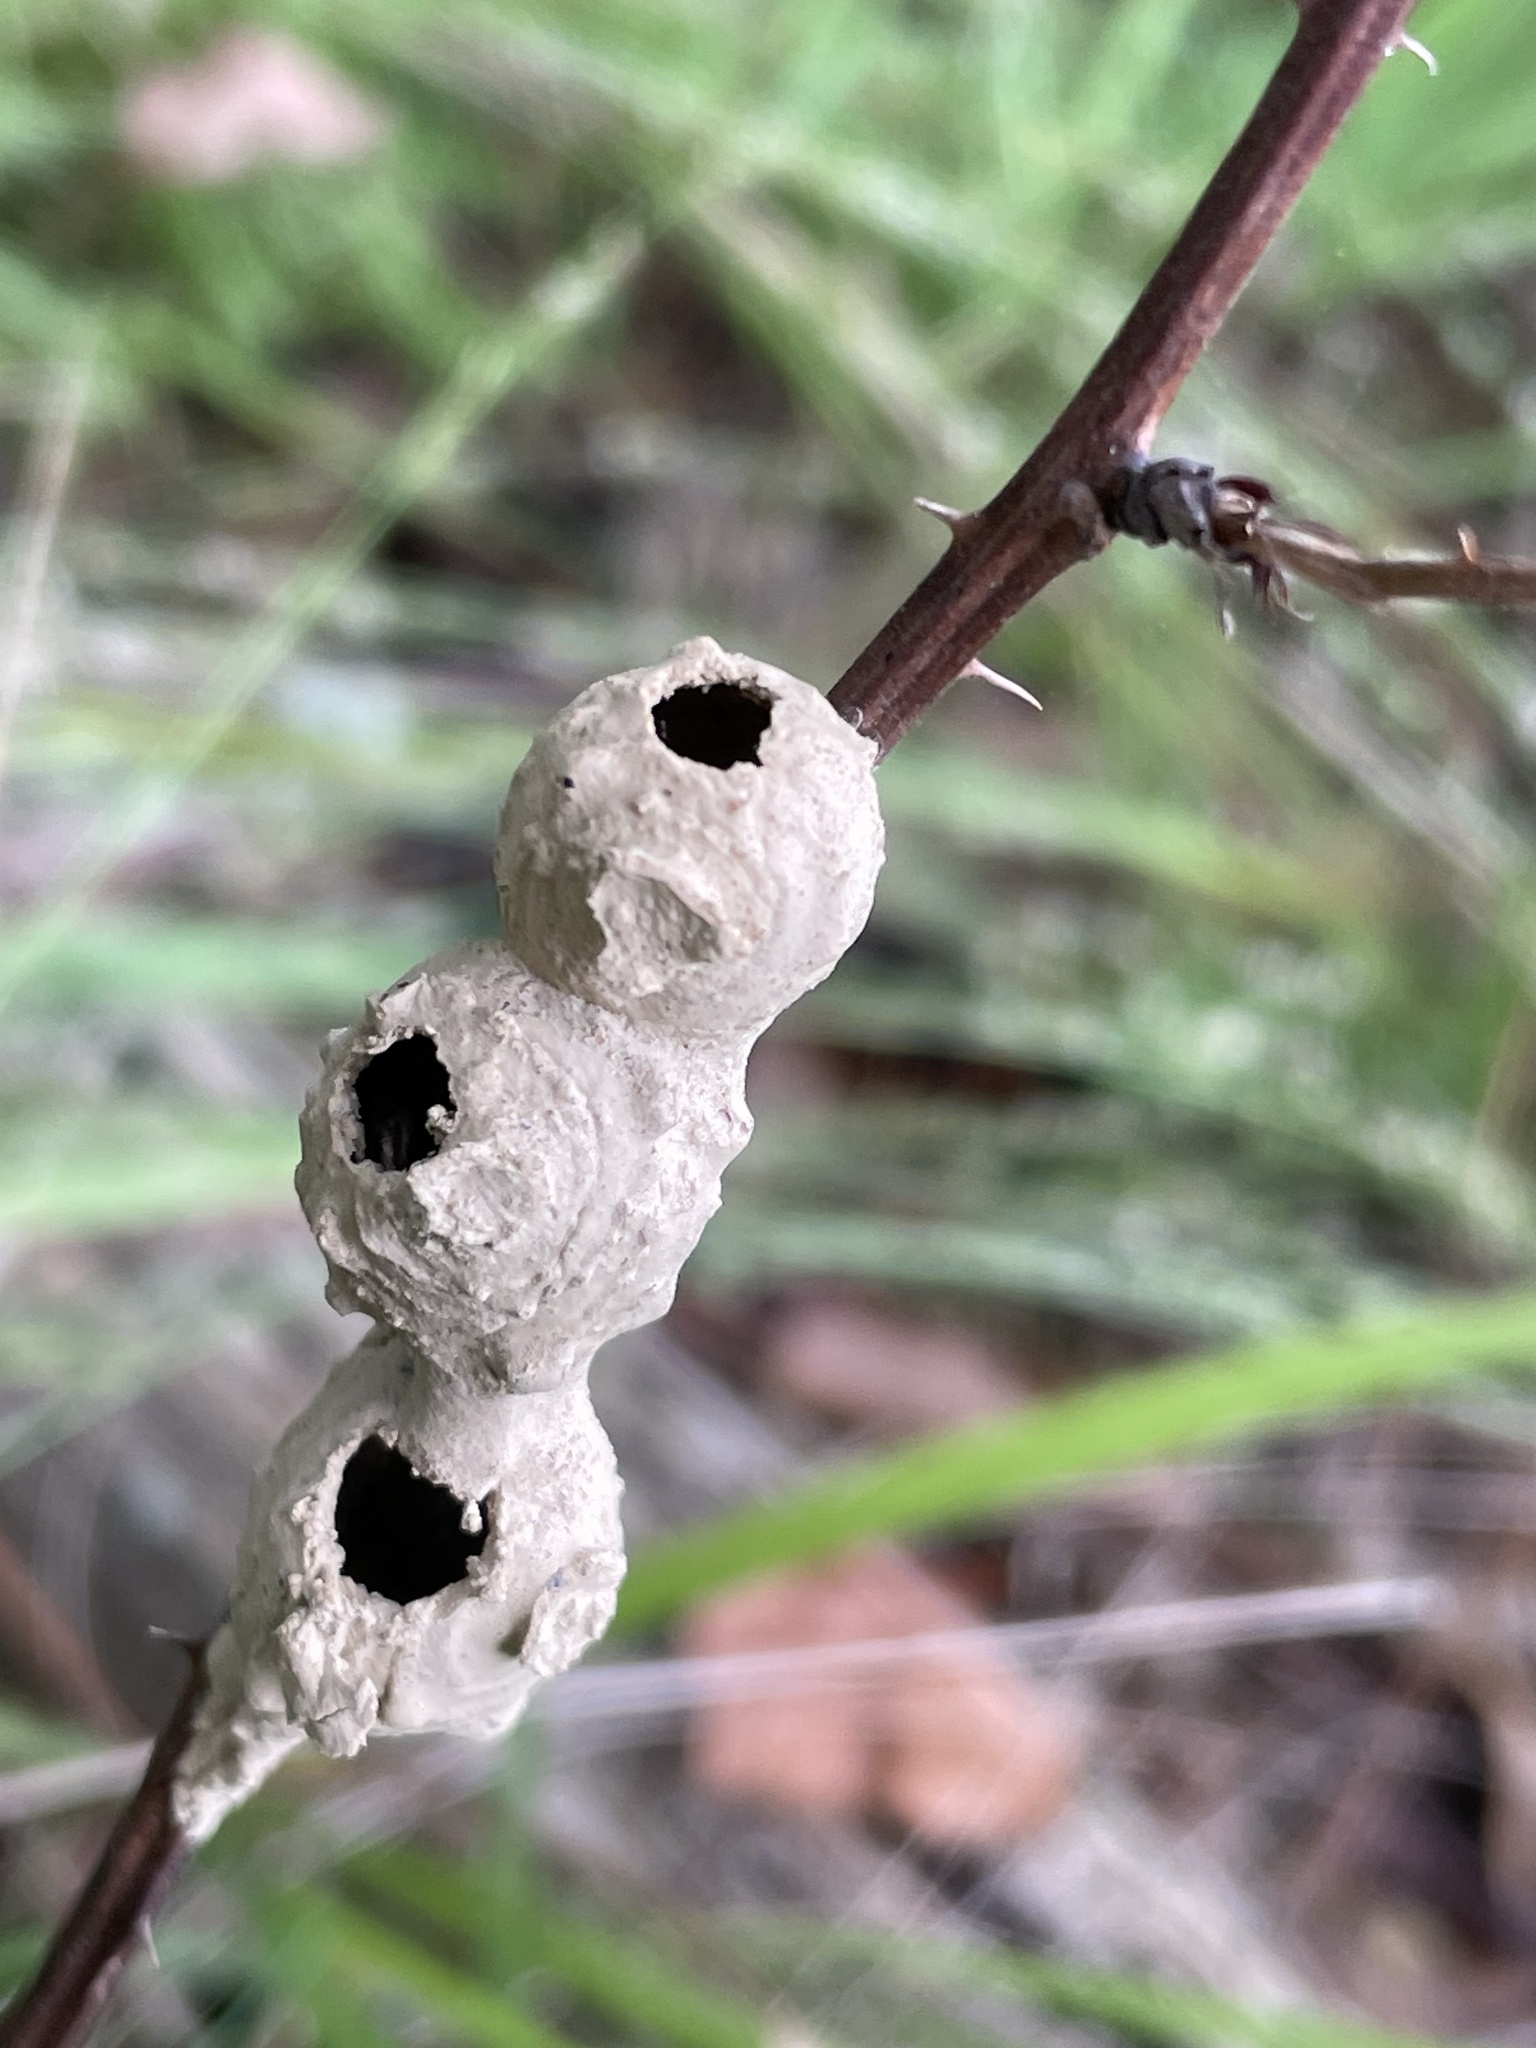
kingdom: Animalia
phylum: Arthropoda
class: Insecta
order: Hymenoptera
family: Vespidae
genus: Eumenes
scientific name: Eumenes fraternus
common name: Fraternal potter wasp
